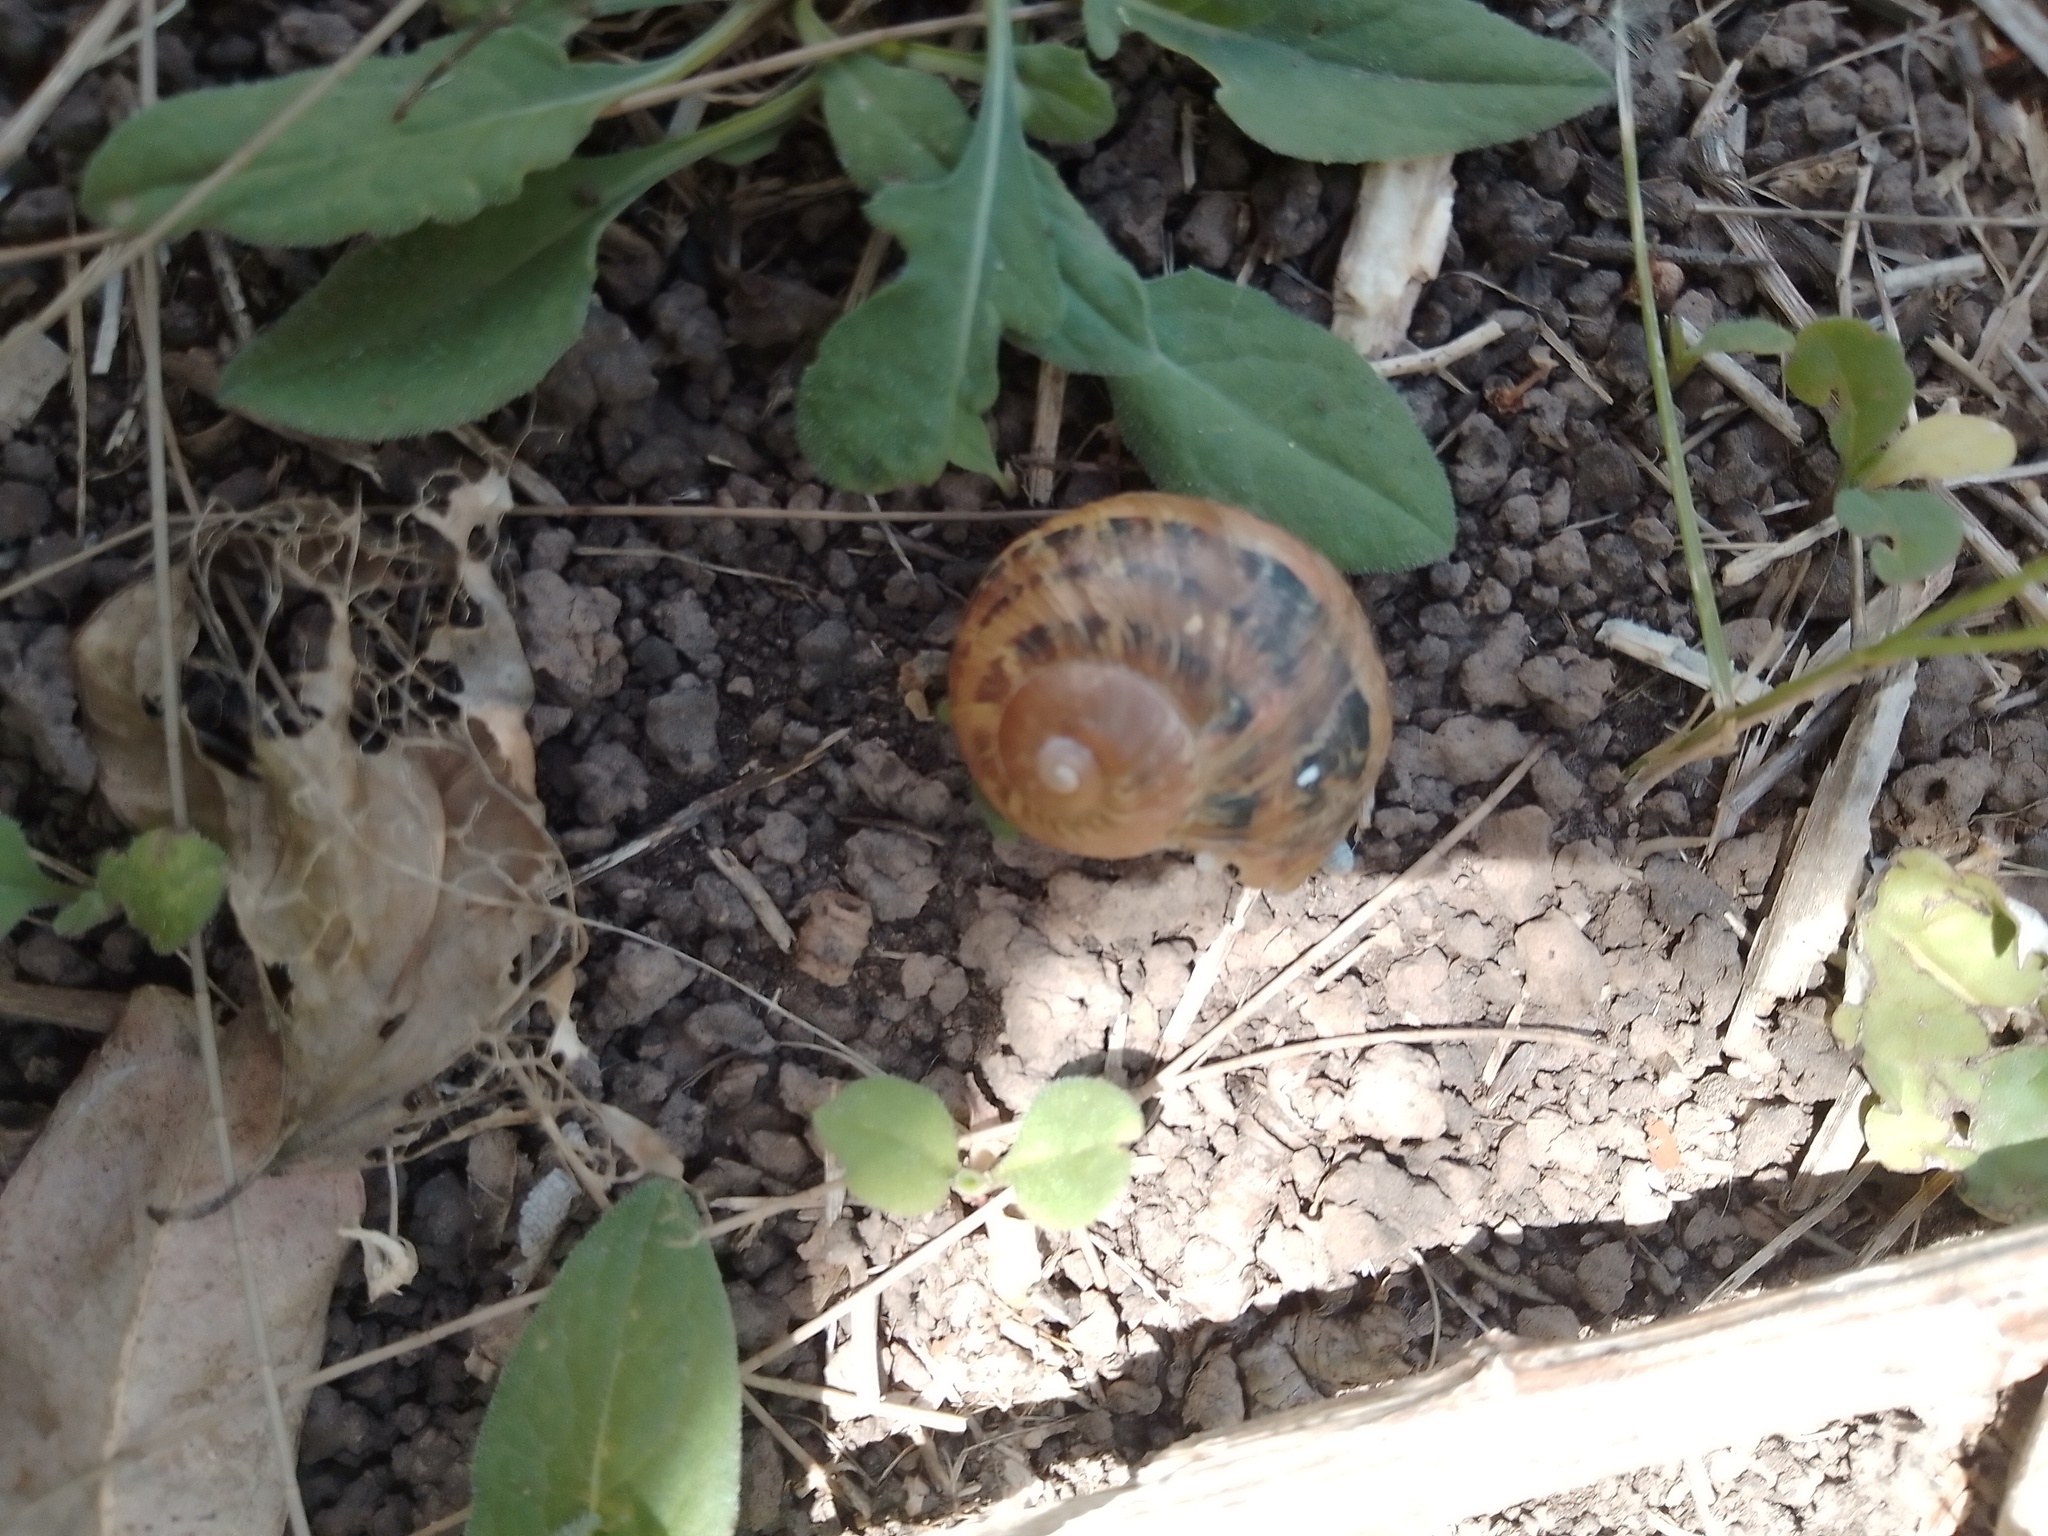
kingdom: Animalia
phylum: Mollusca
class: Gastropoda
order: Stylommatophora
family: Helicidae
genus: Cornu
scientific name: Cornu aspersum
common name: Brown garden snail
